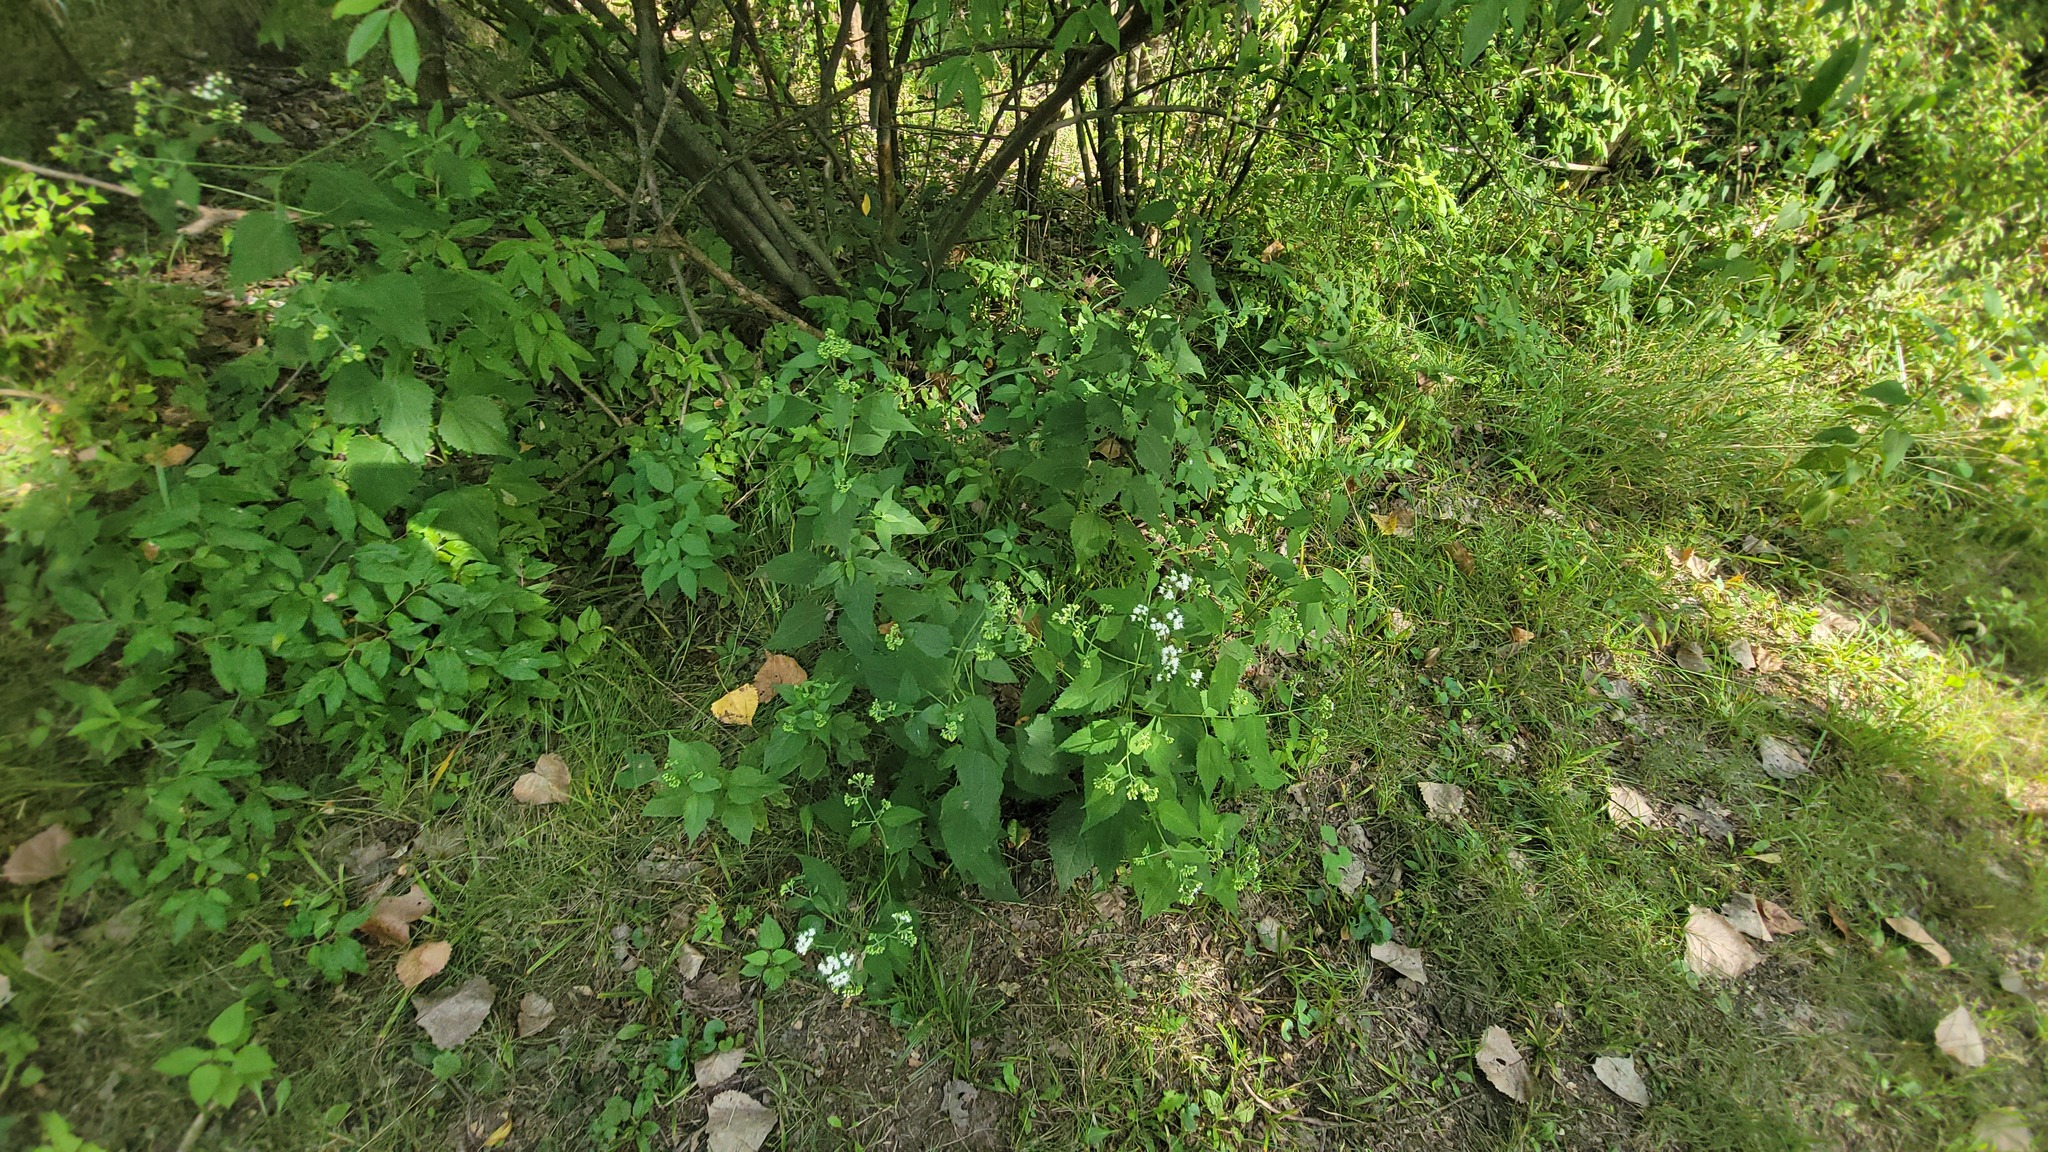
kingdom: Plantae
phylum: Tracheophyta
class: Magnoliopsida
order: Asterales
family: Asteraceae
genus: Ageratina
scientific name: Ageratina altissima
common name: White snakeroot
